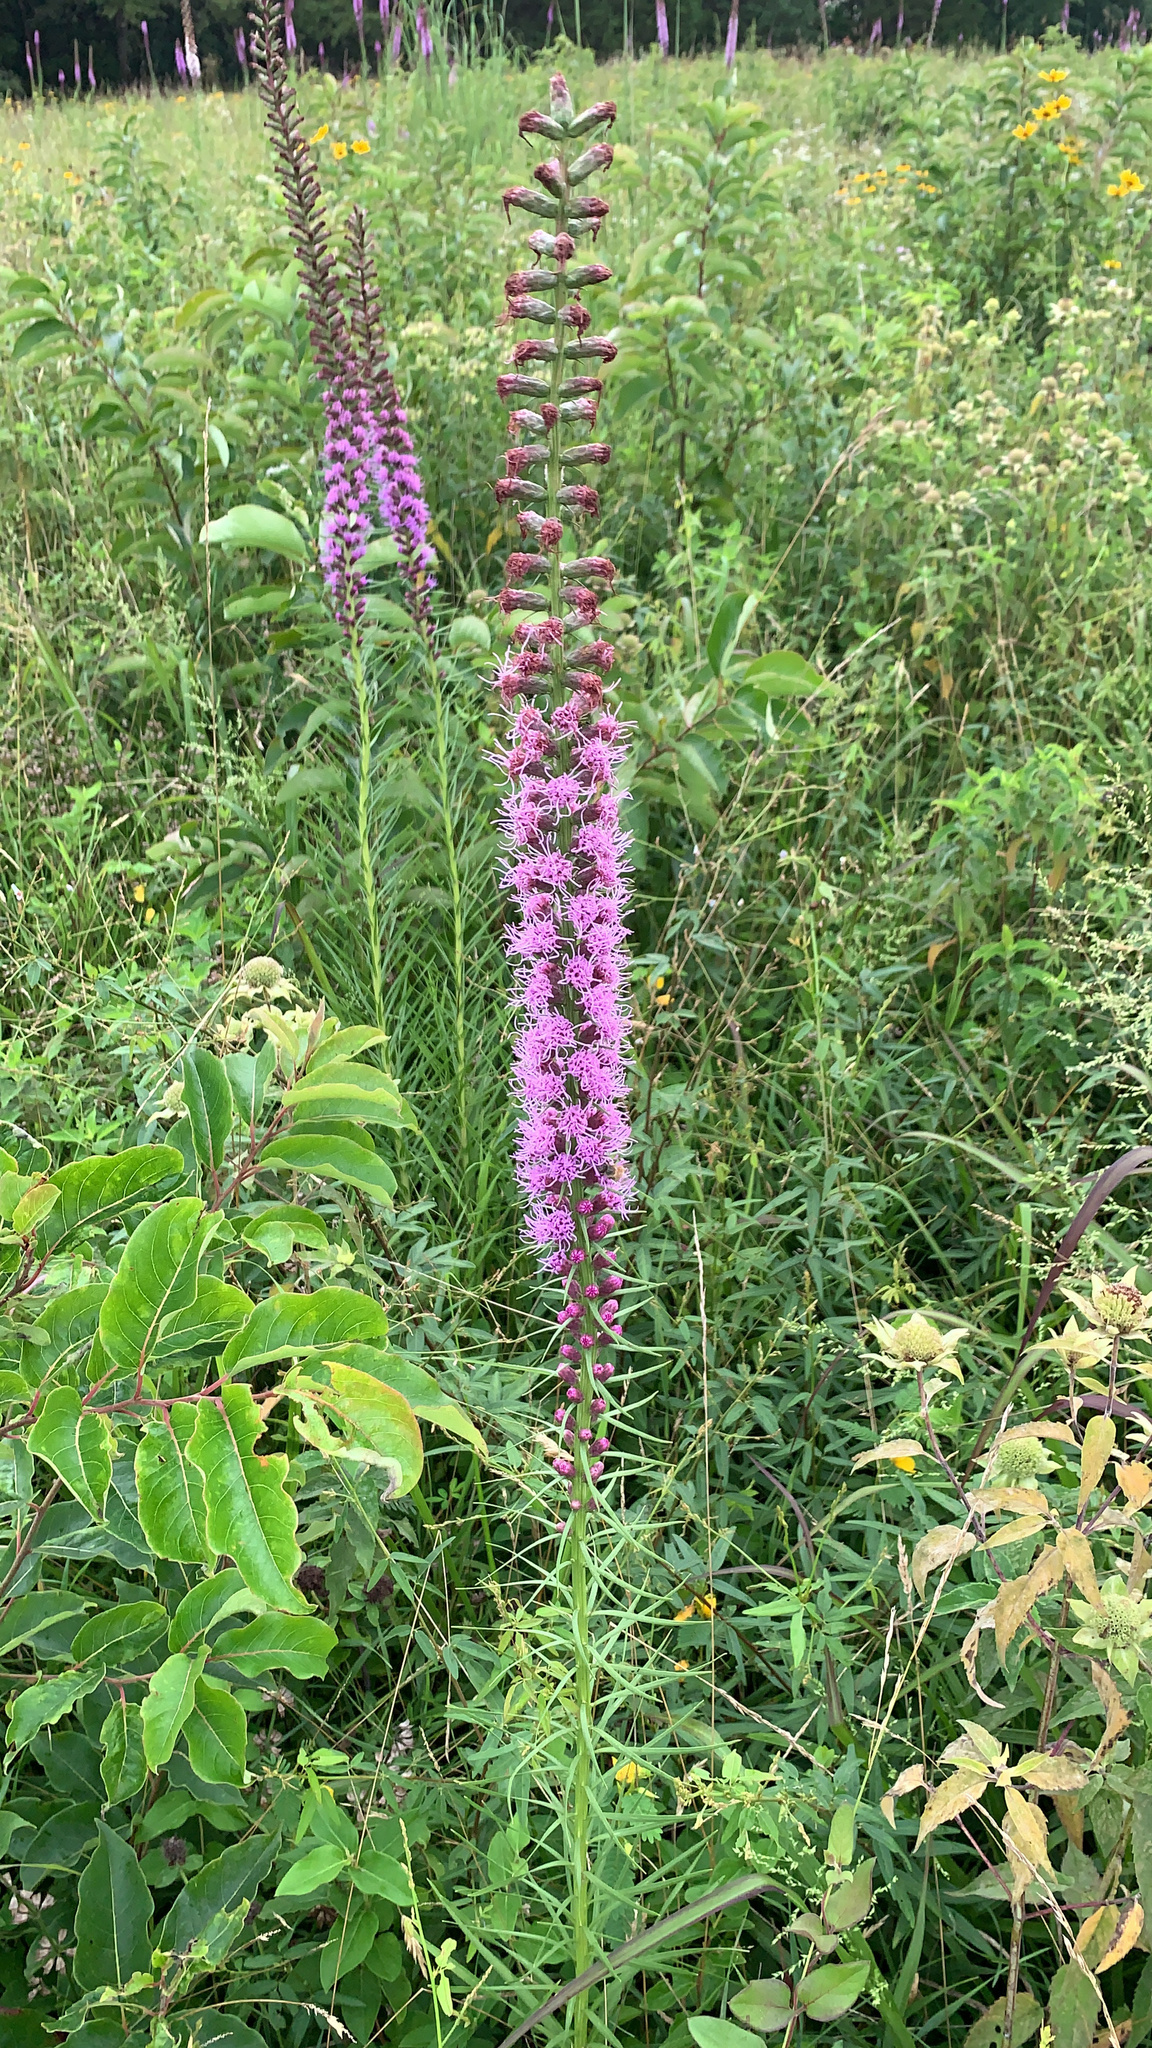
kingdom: Plantae
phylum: Tracheophyta
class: Magnoliopsida
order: Asterales
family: Asteraceae
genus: Liatris
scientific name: Liatris spicata
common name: Florist gayfeather
